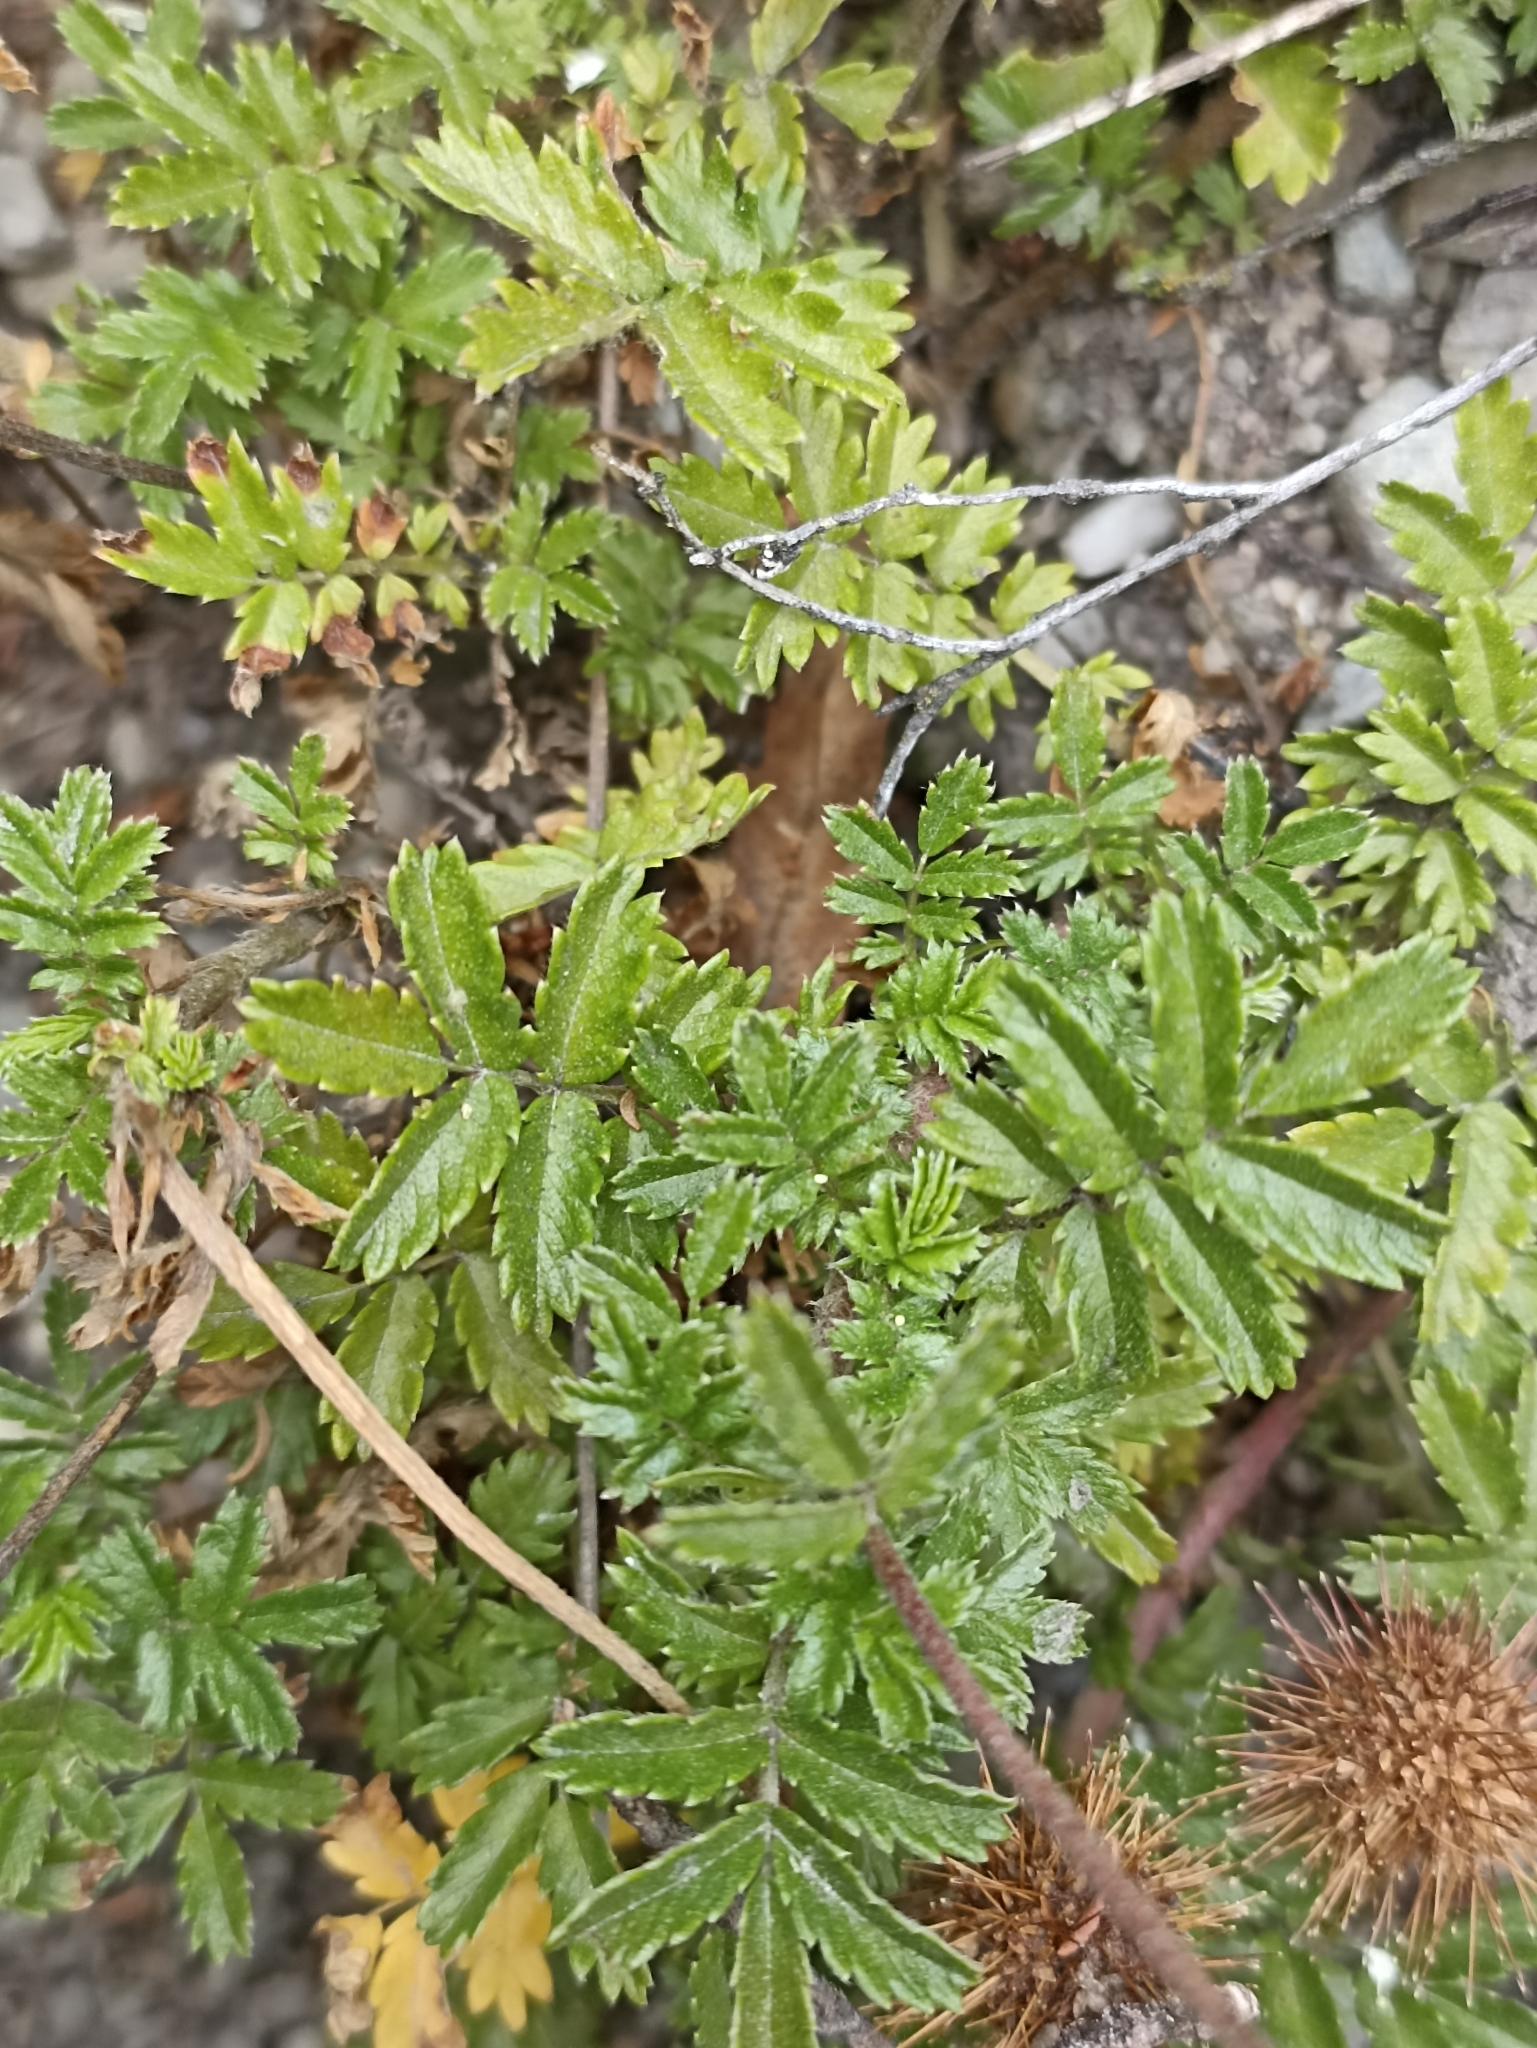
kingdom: Plantae
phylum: Tracheophyta
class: Magnoliopsida
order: Rosales
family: Rosaceae
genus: Acaena
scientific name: Acaena novae-zelandiae
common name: Pirri-pirri-bur
